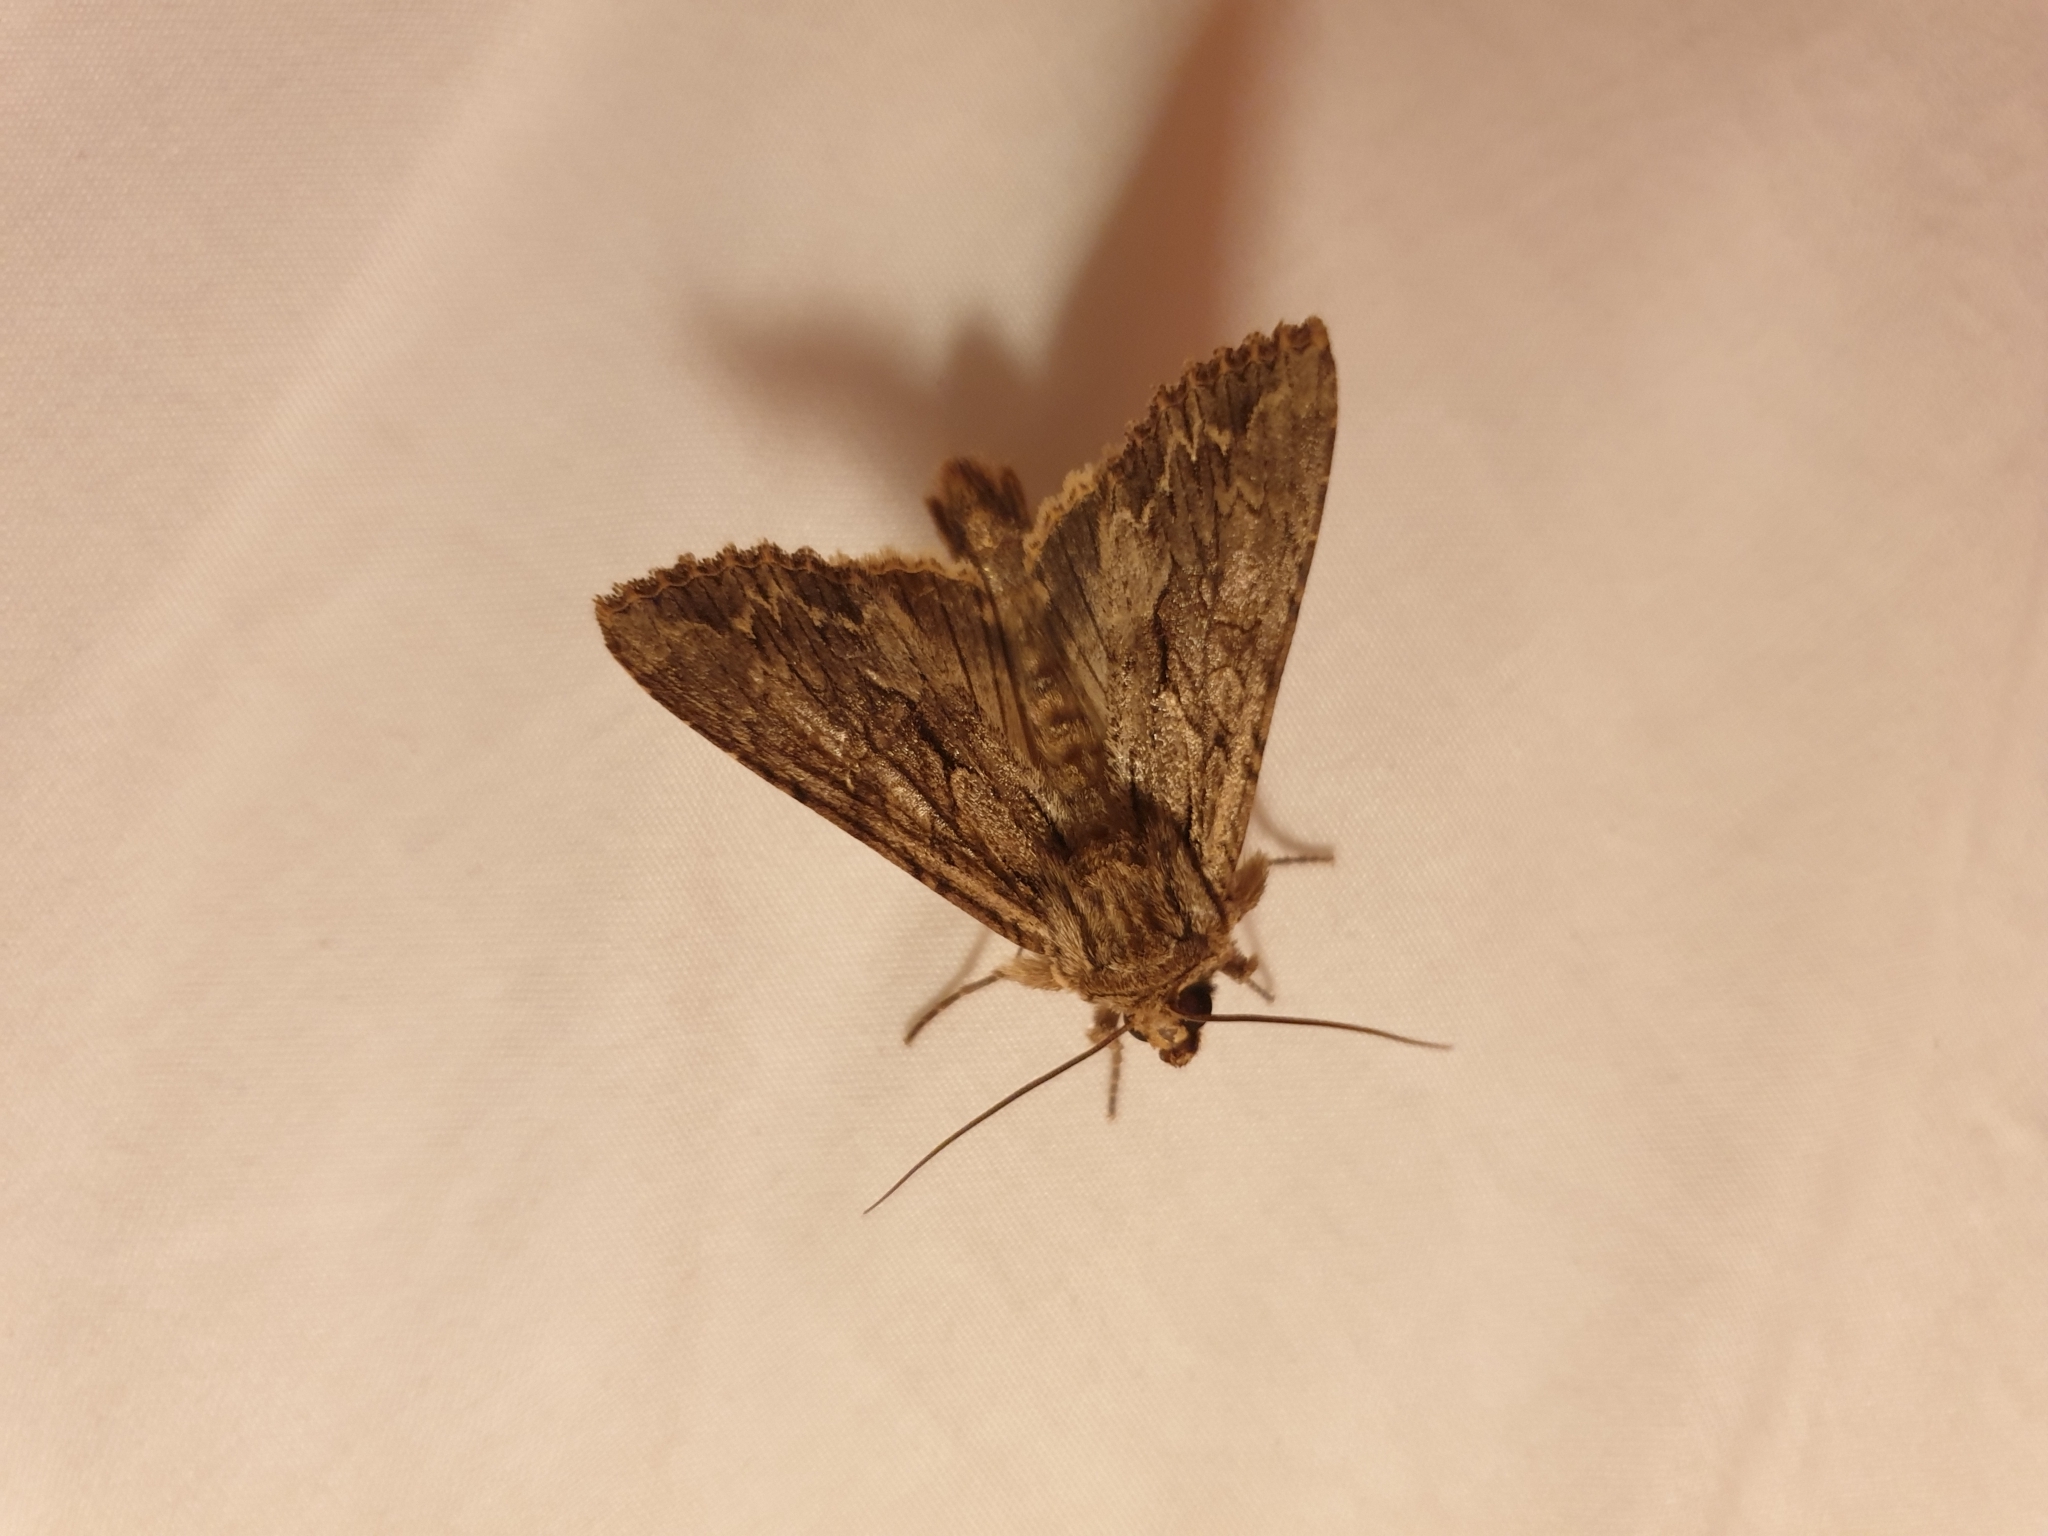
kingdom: Animalia
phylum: Arthropoda
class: Insecta
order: Lepidoptera
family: Noctuidae
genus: Apamea
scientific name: Apamea monoglypha
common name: Dark arches
